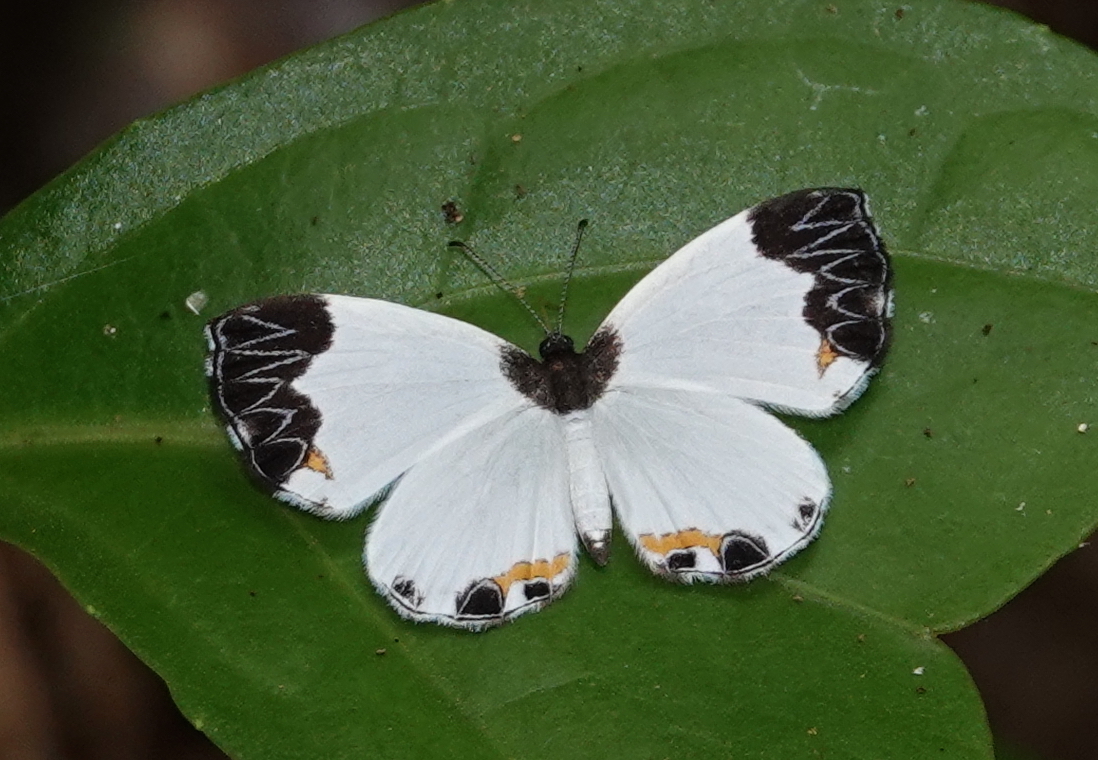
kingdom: Animalia
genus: Nymphidium
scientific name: Nymphidium ninias
